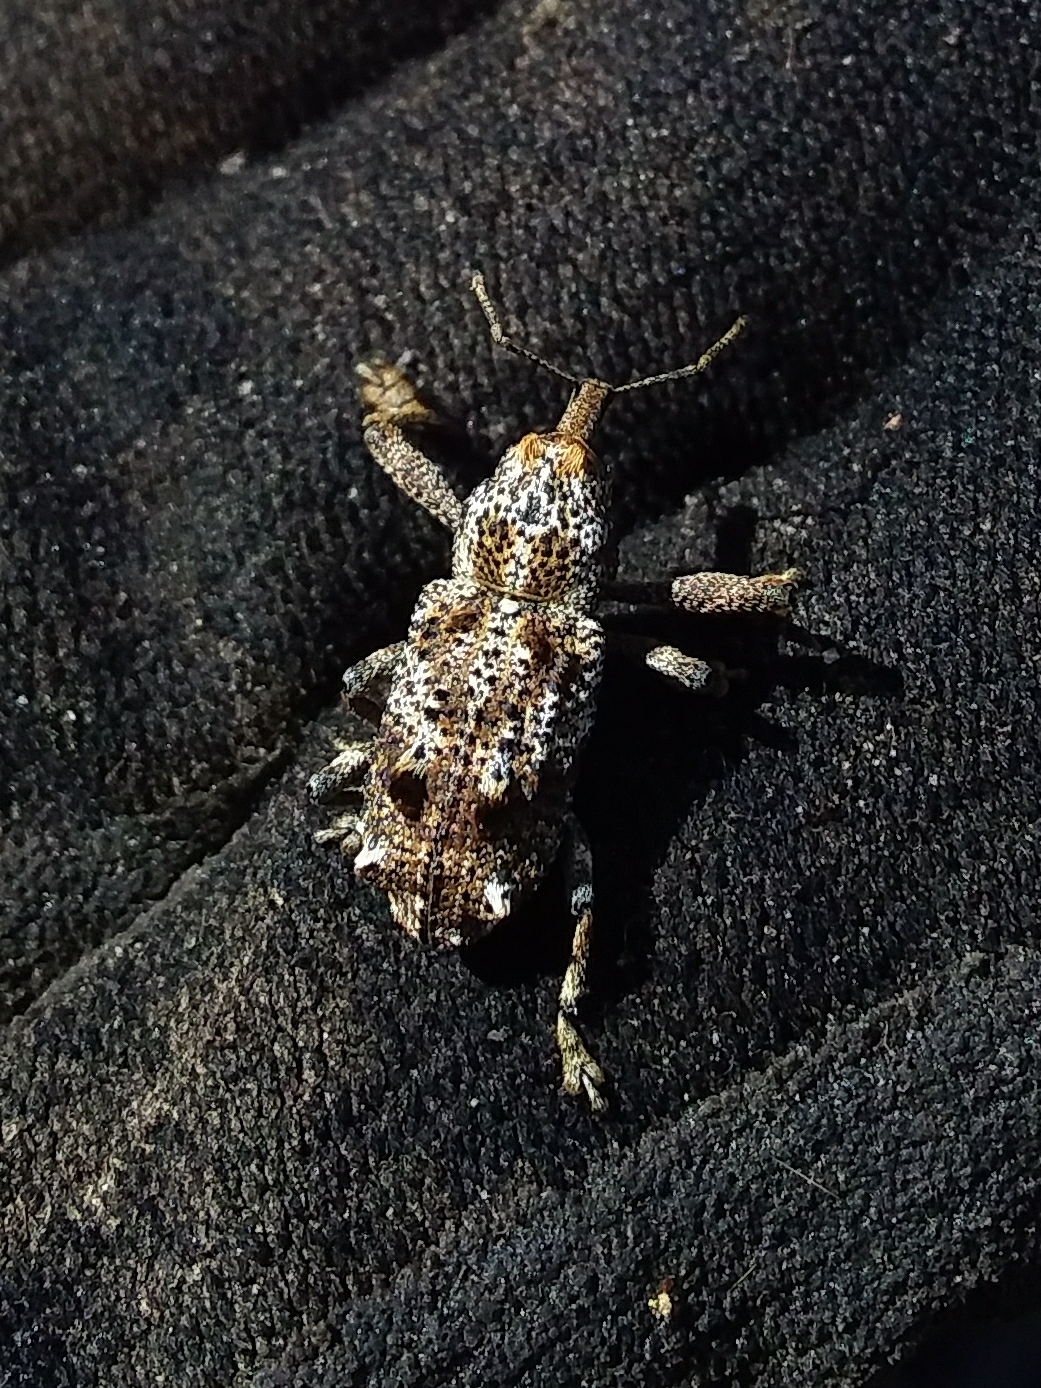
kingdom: Animalia
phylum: Arthropoda
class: Insecta
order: Coleoptera
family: Curculionidae
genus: Orthorhinus
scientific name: Orthorhinus cylindrirostris
